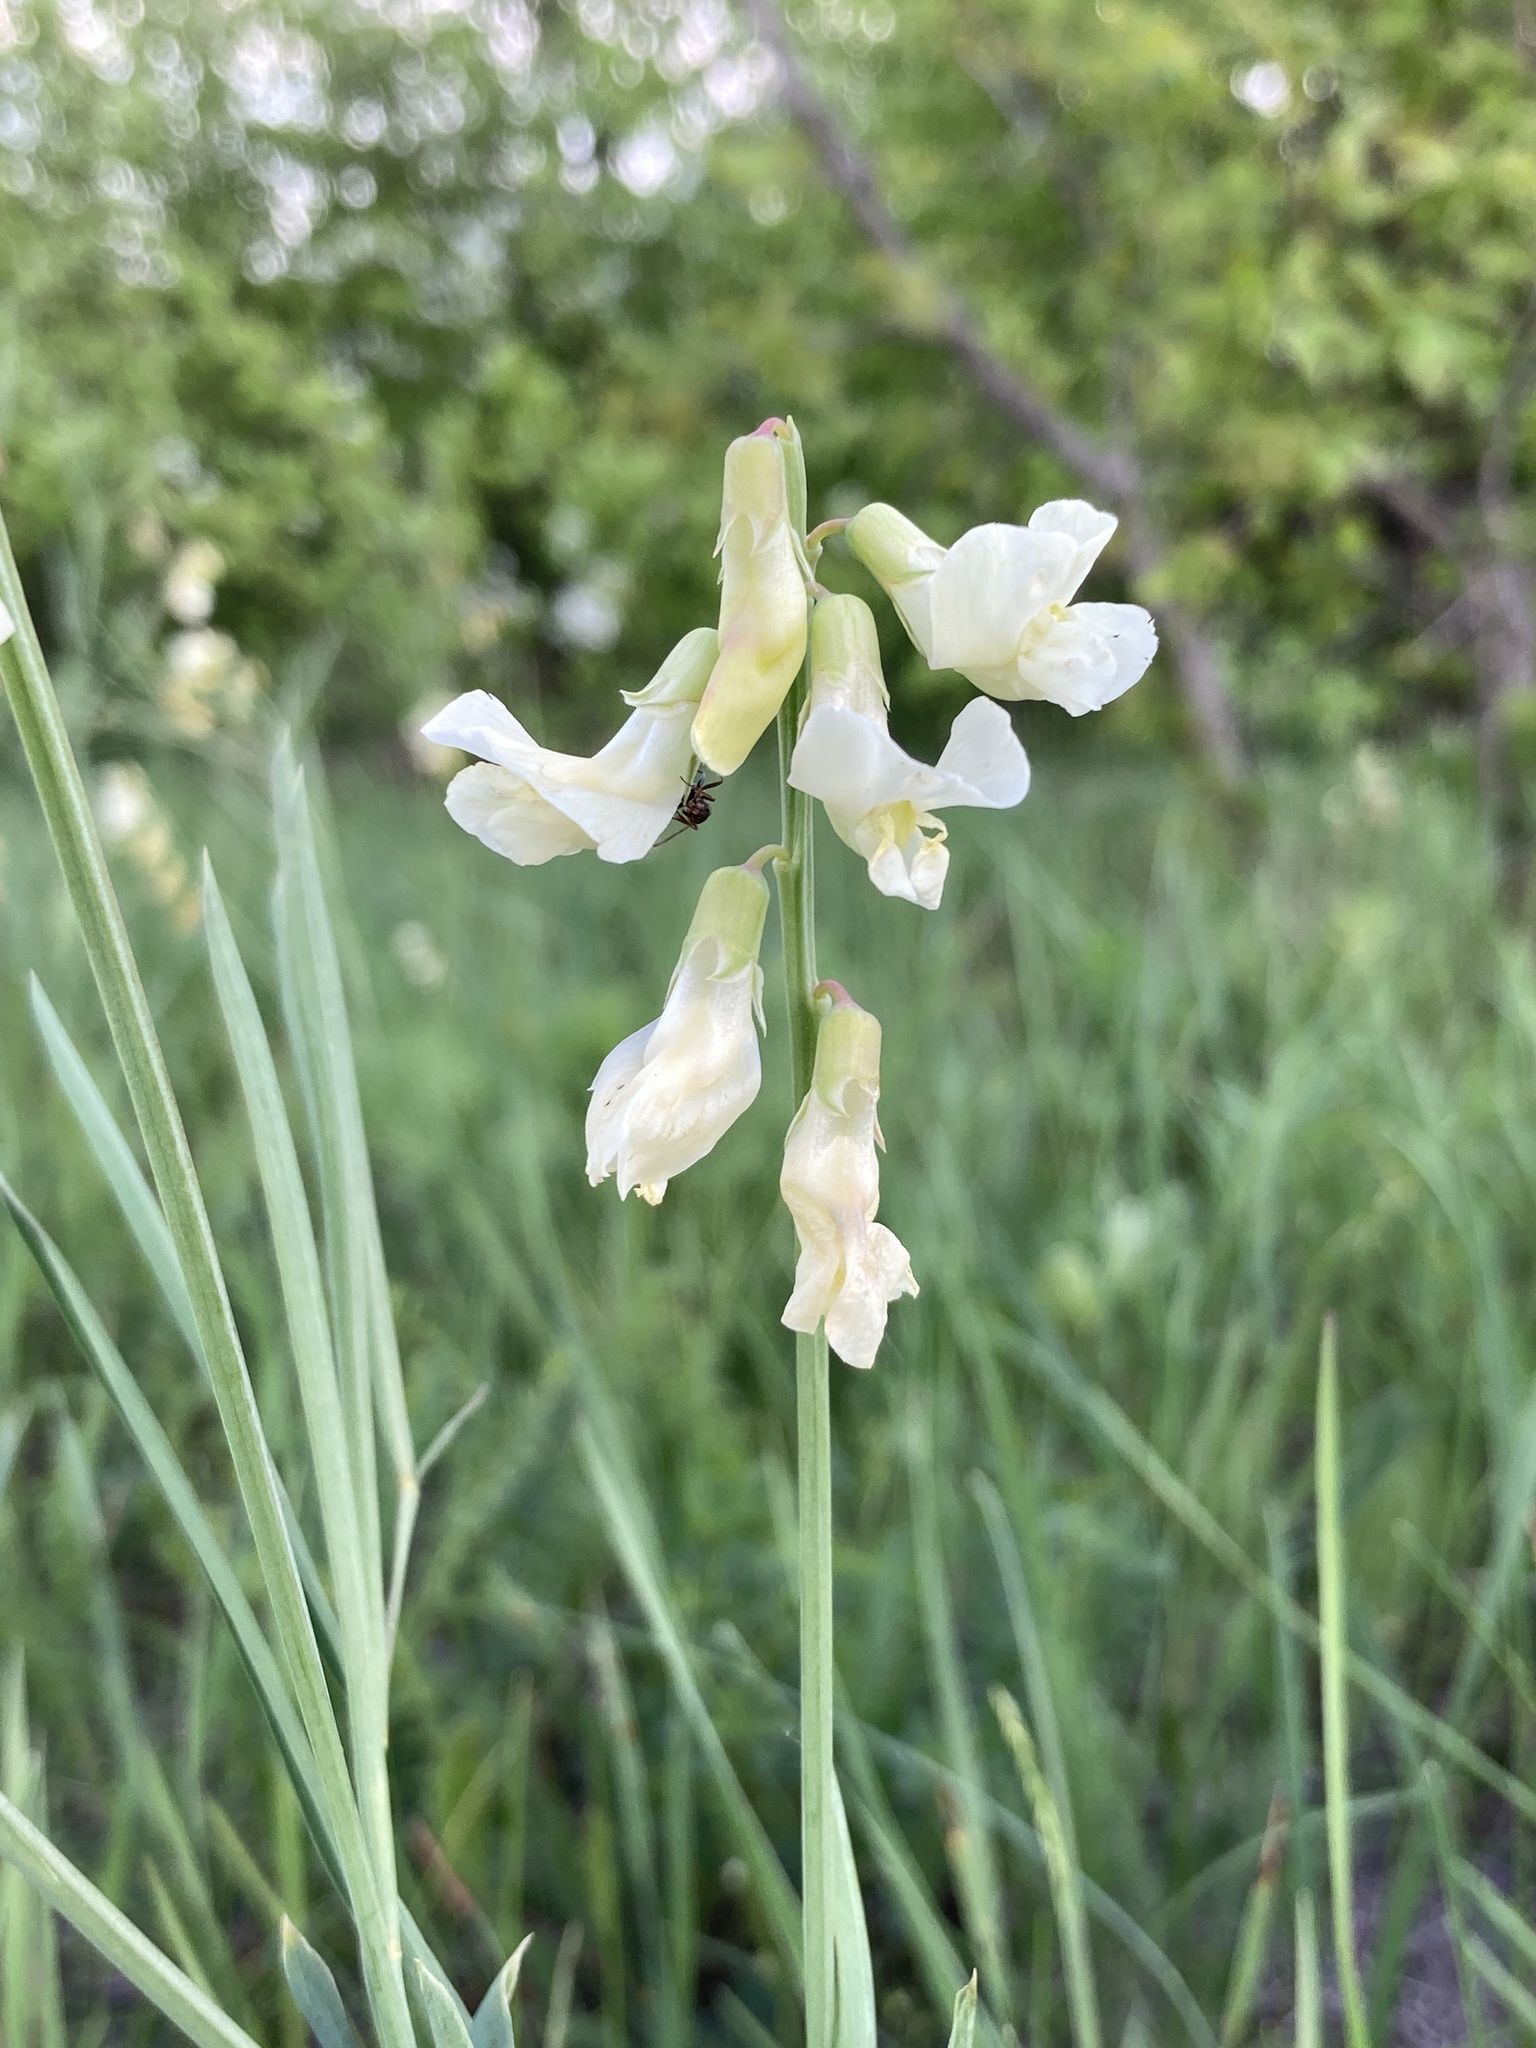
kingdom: Plantae
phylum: Tracheophyta
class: Magnoliopsida
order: Fabales
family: Fabaceae
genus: Lathyrus
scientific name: Lathyrus pannonicus
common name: Pea
